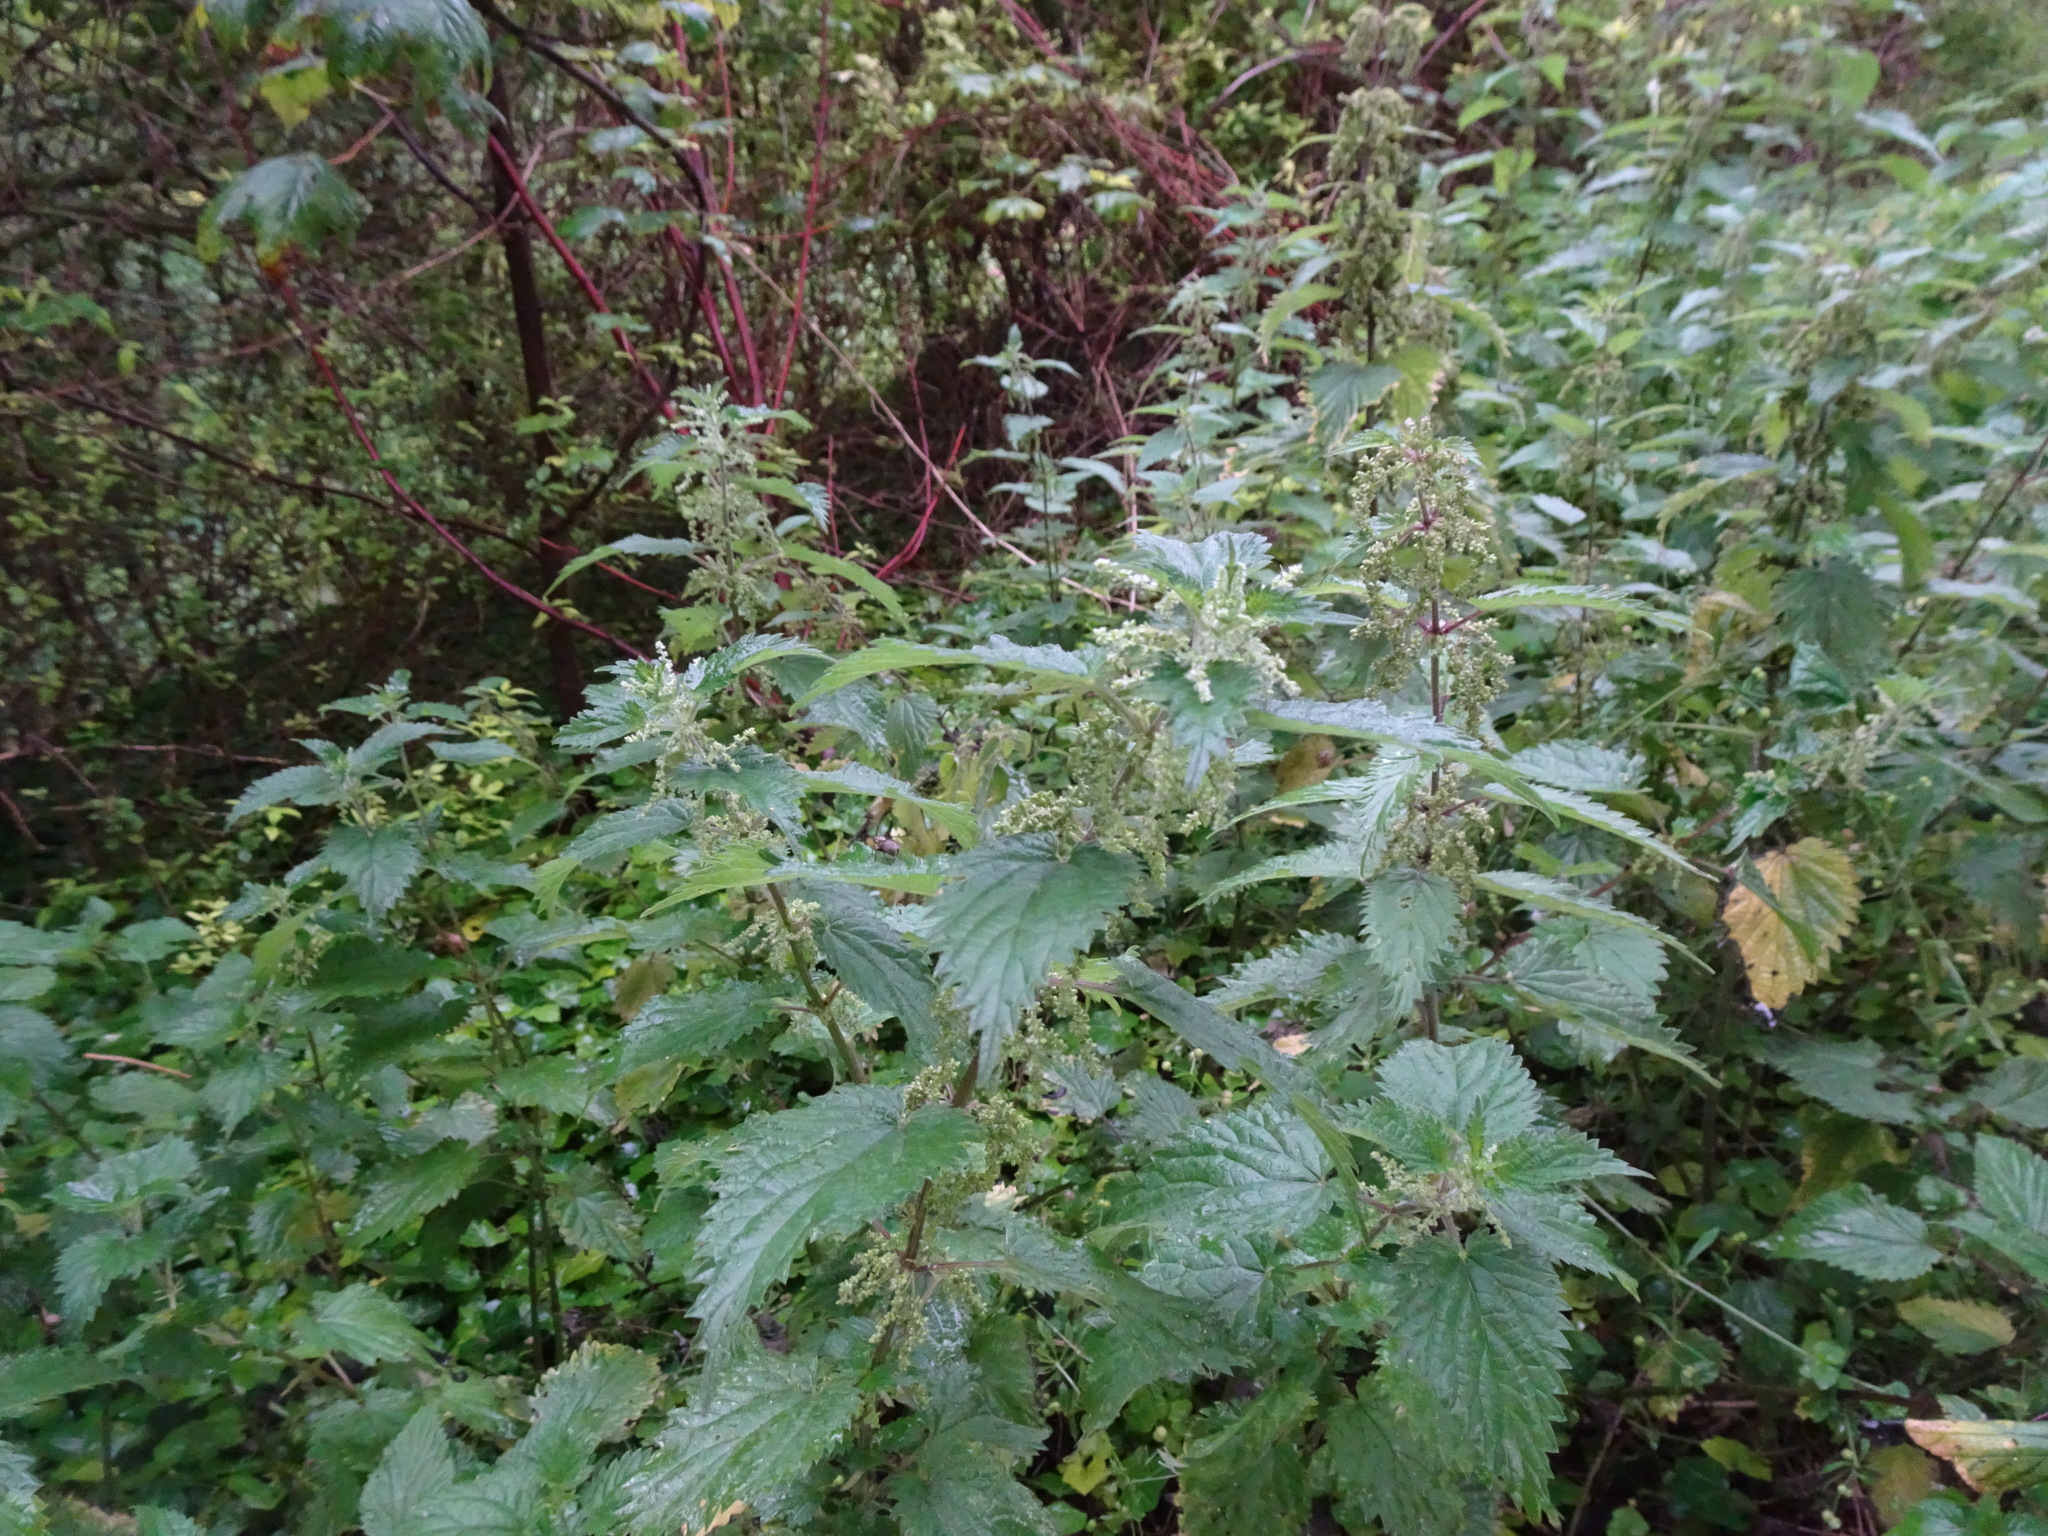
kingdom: Plantae
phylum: Tracheophyta
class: Magnoliopsida
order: Rosales
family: Urticaceae
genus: Urtica
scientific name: Urtica dioica
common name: Common nettle
